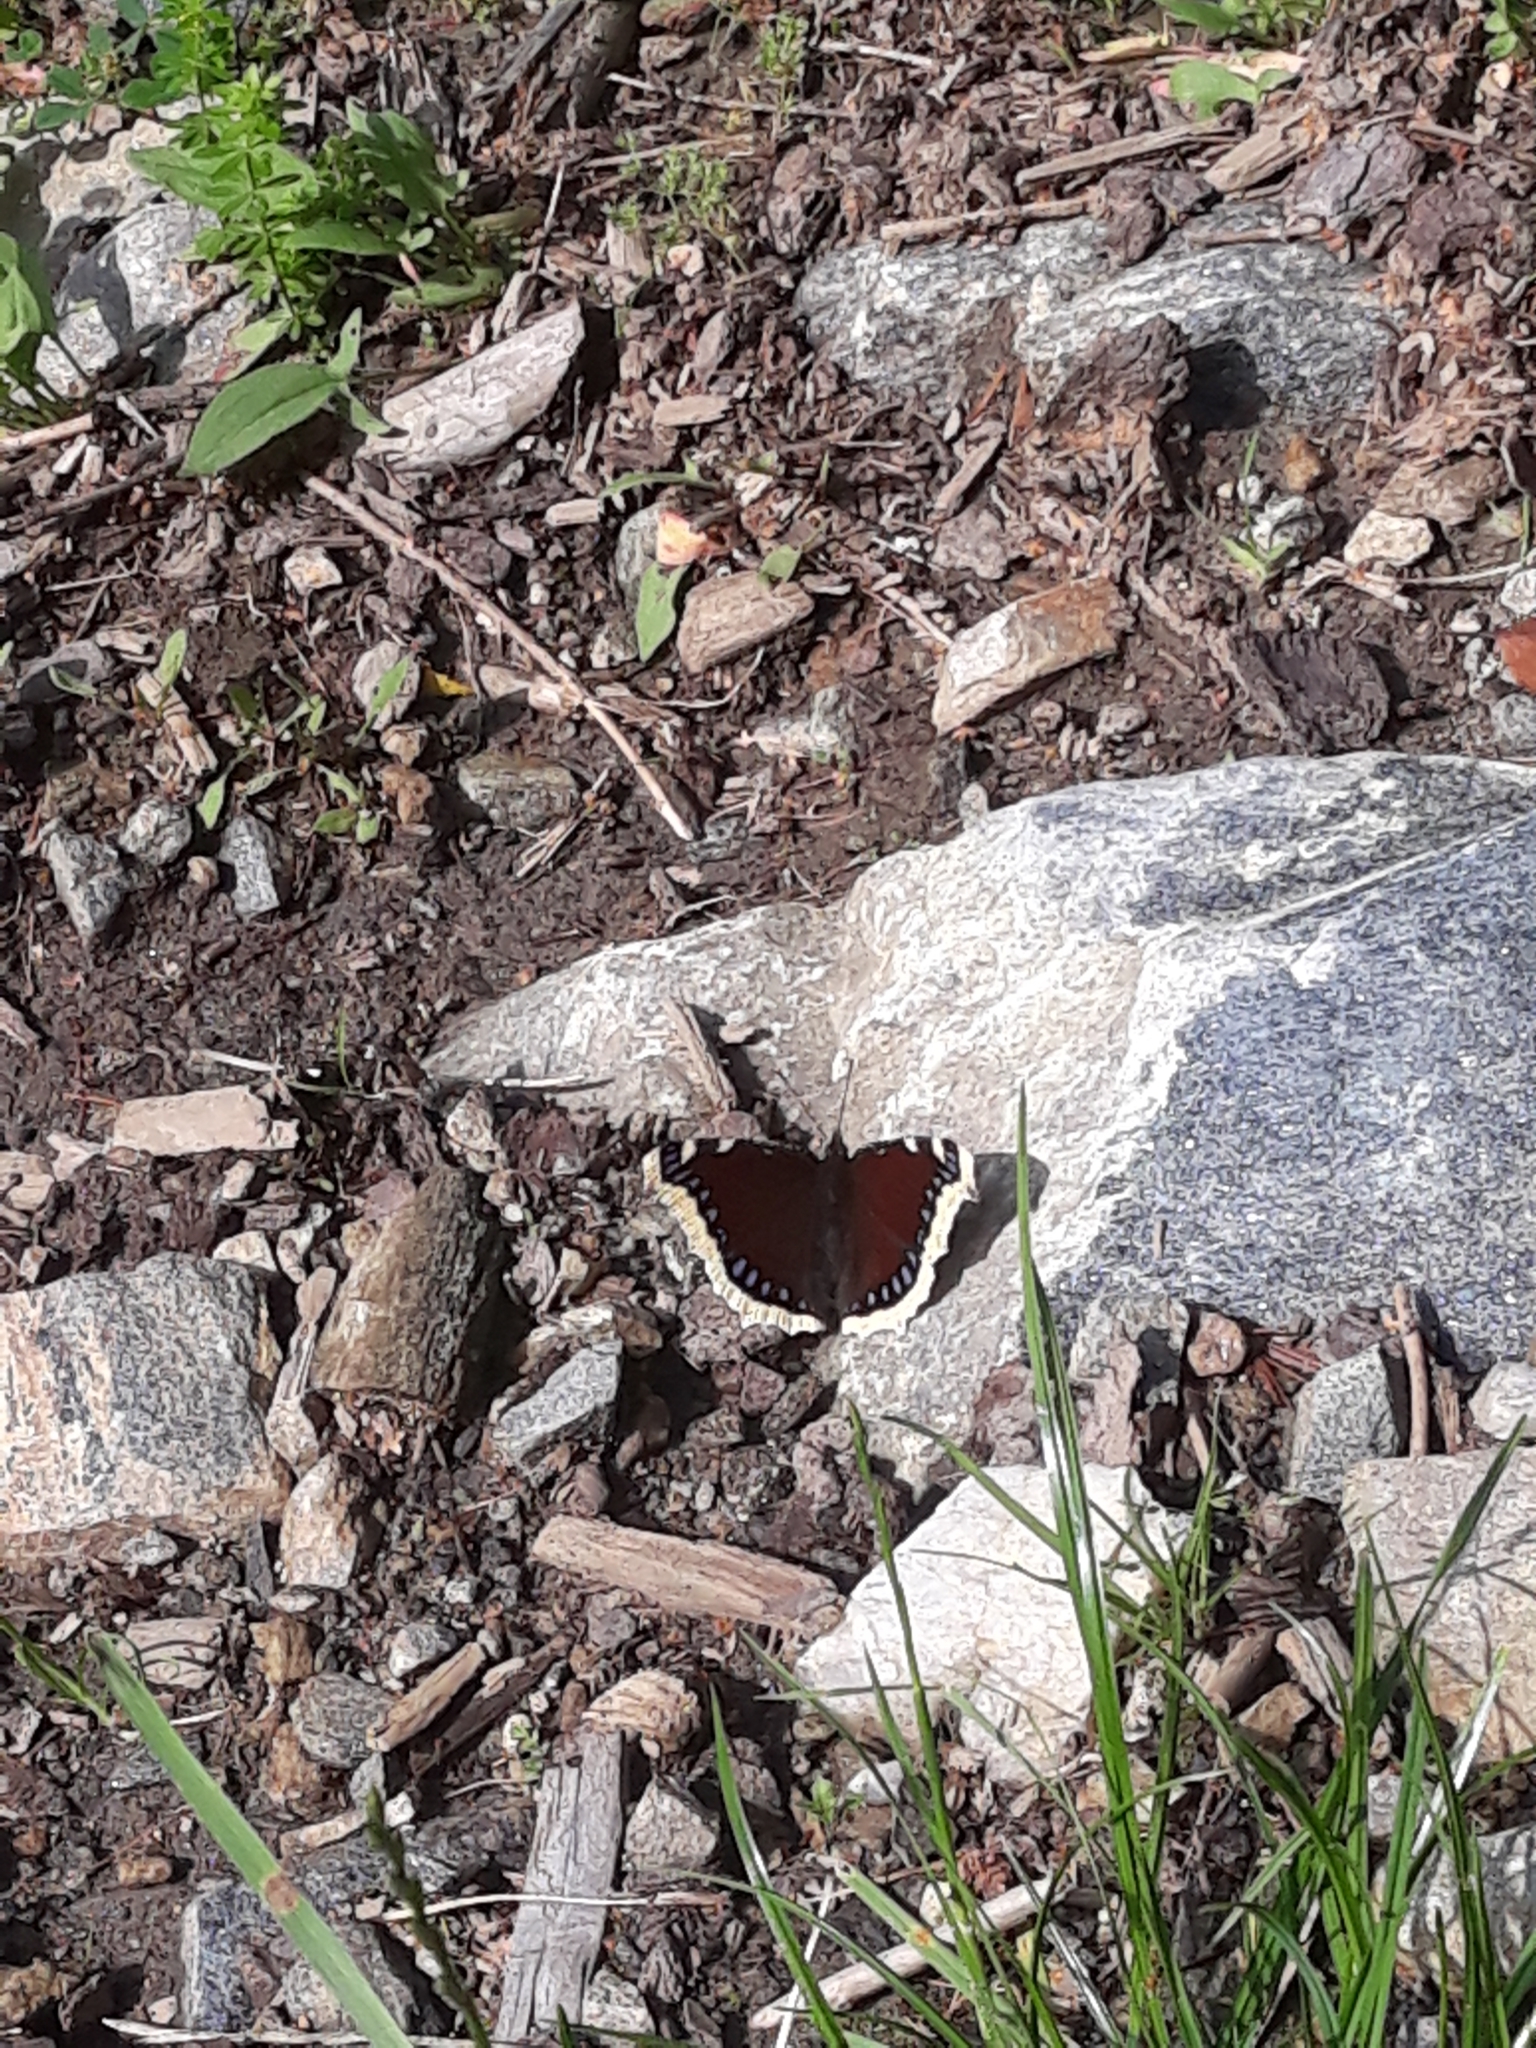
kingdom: Animalia
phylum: Arthropoda
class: Insecta
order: Lepidoptera
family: Nymphalidae
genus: Nymphalis
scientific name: Nymphalis antiopa
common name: Camberwell beauty
